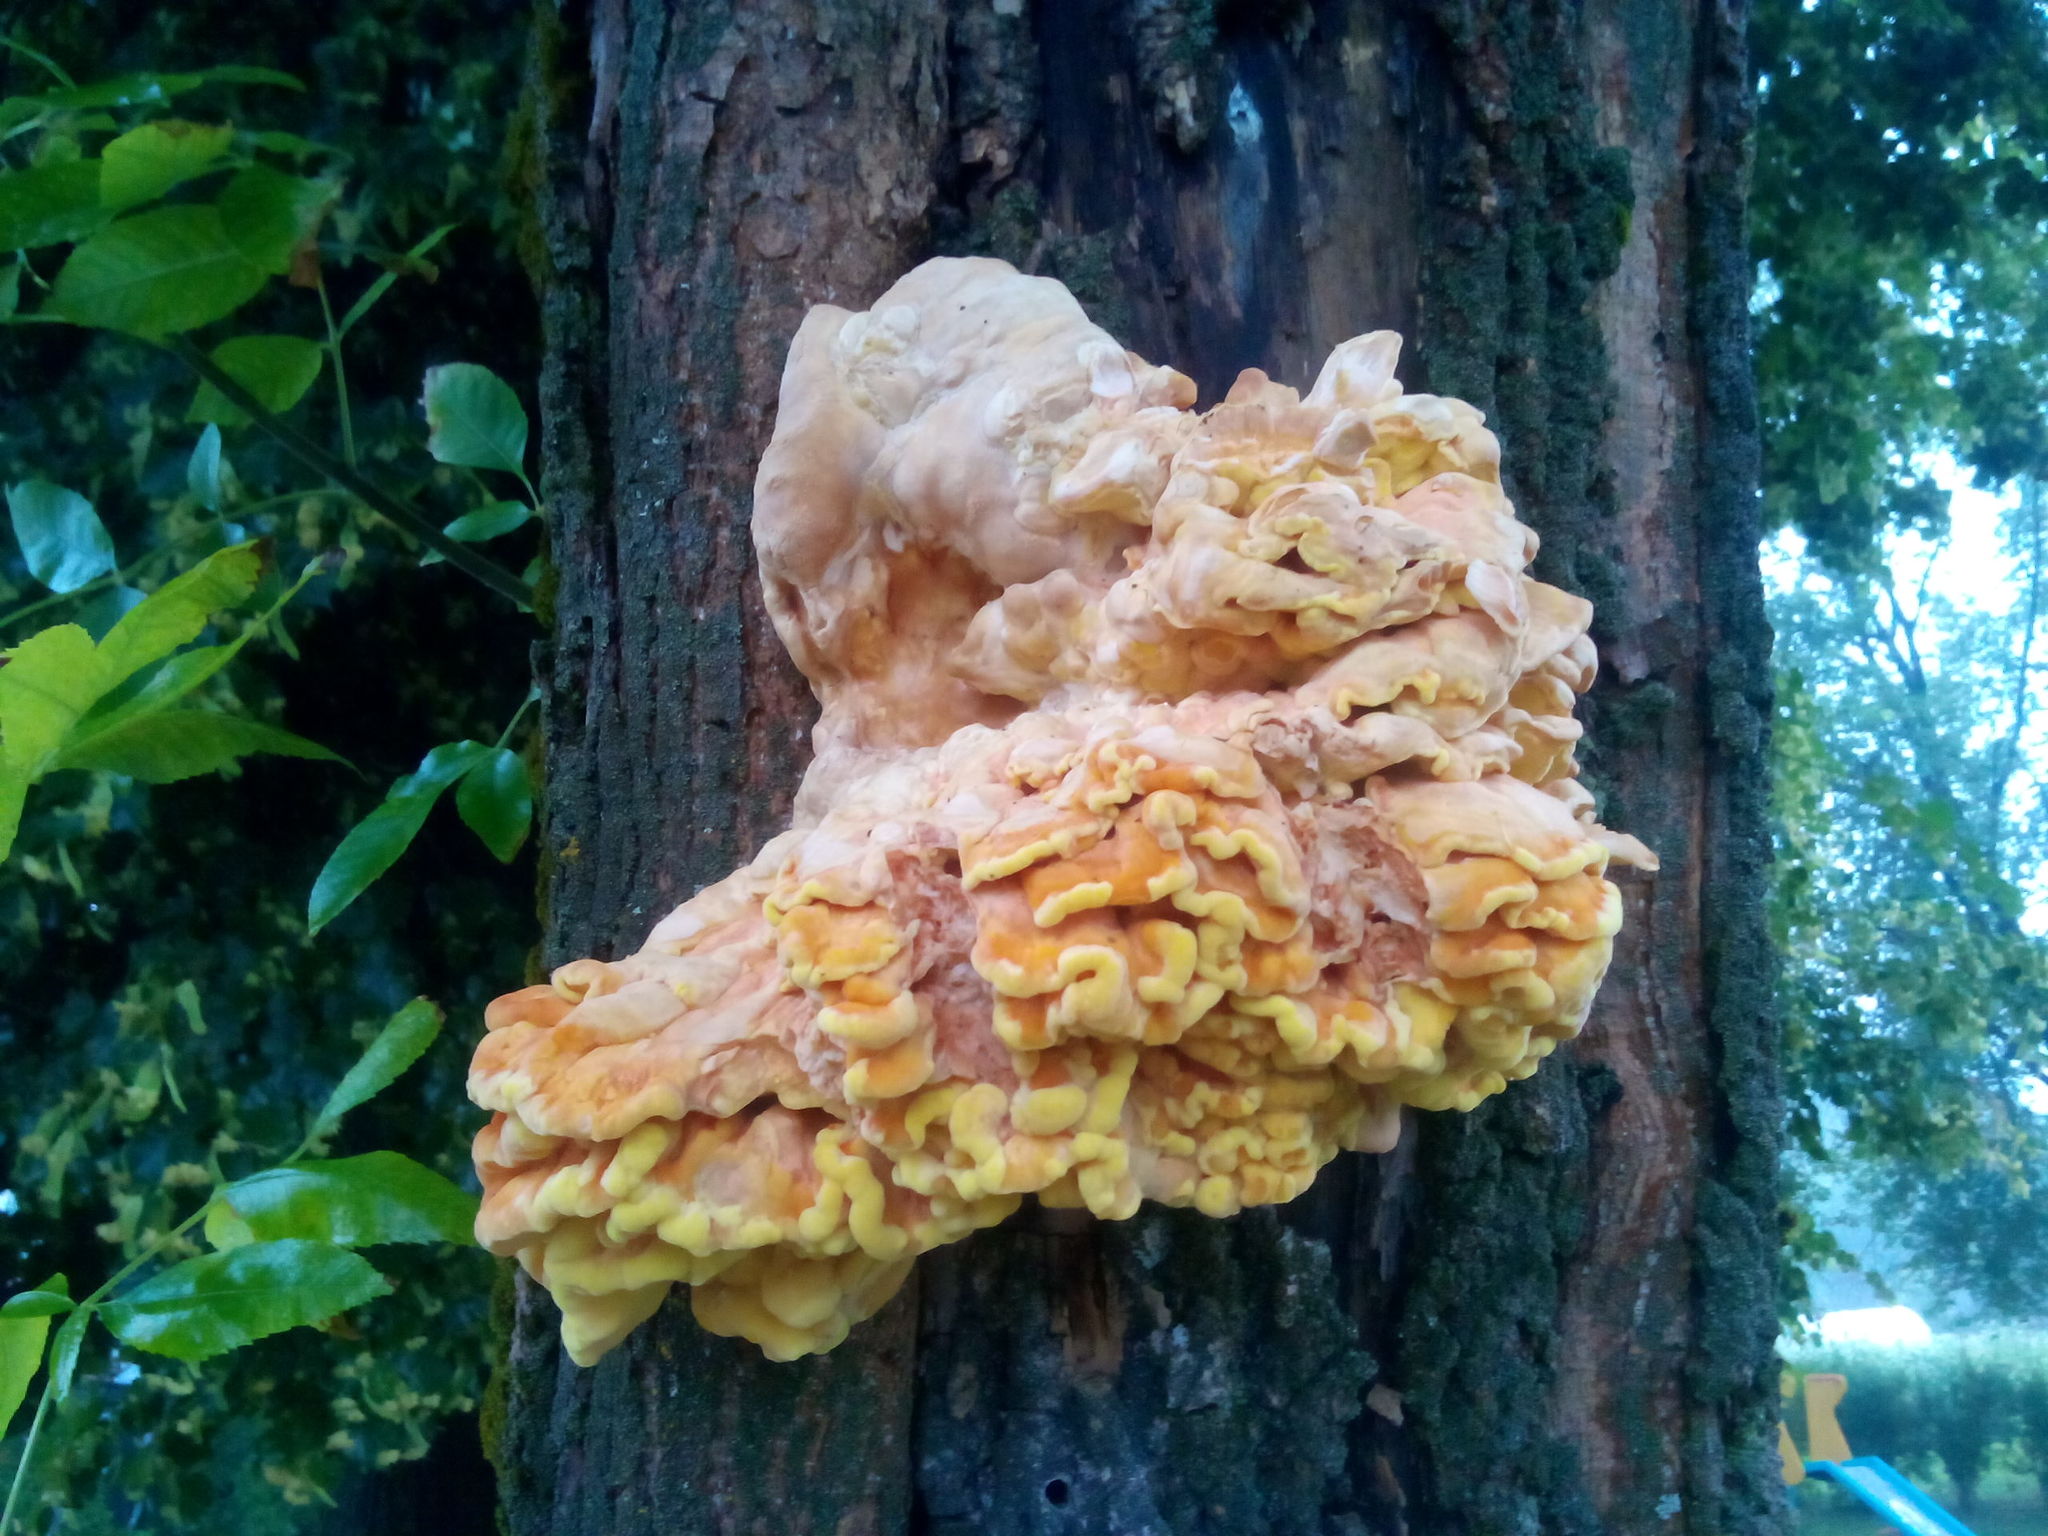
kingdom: Fungi
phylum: Basidiomycota
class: Agaricomycetes
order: Polyporales
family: Laetiporaceae
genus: Laetiporus
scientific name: Laetiporus sulphureus
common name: Chicken of the woods
